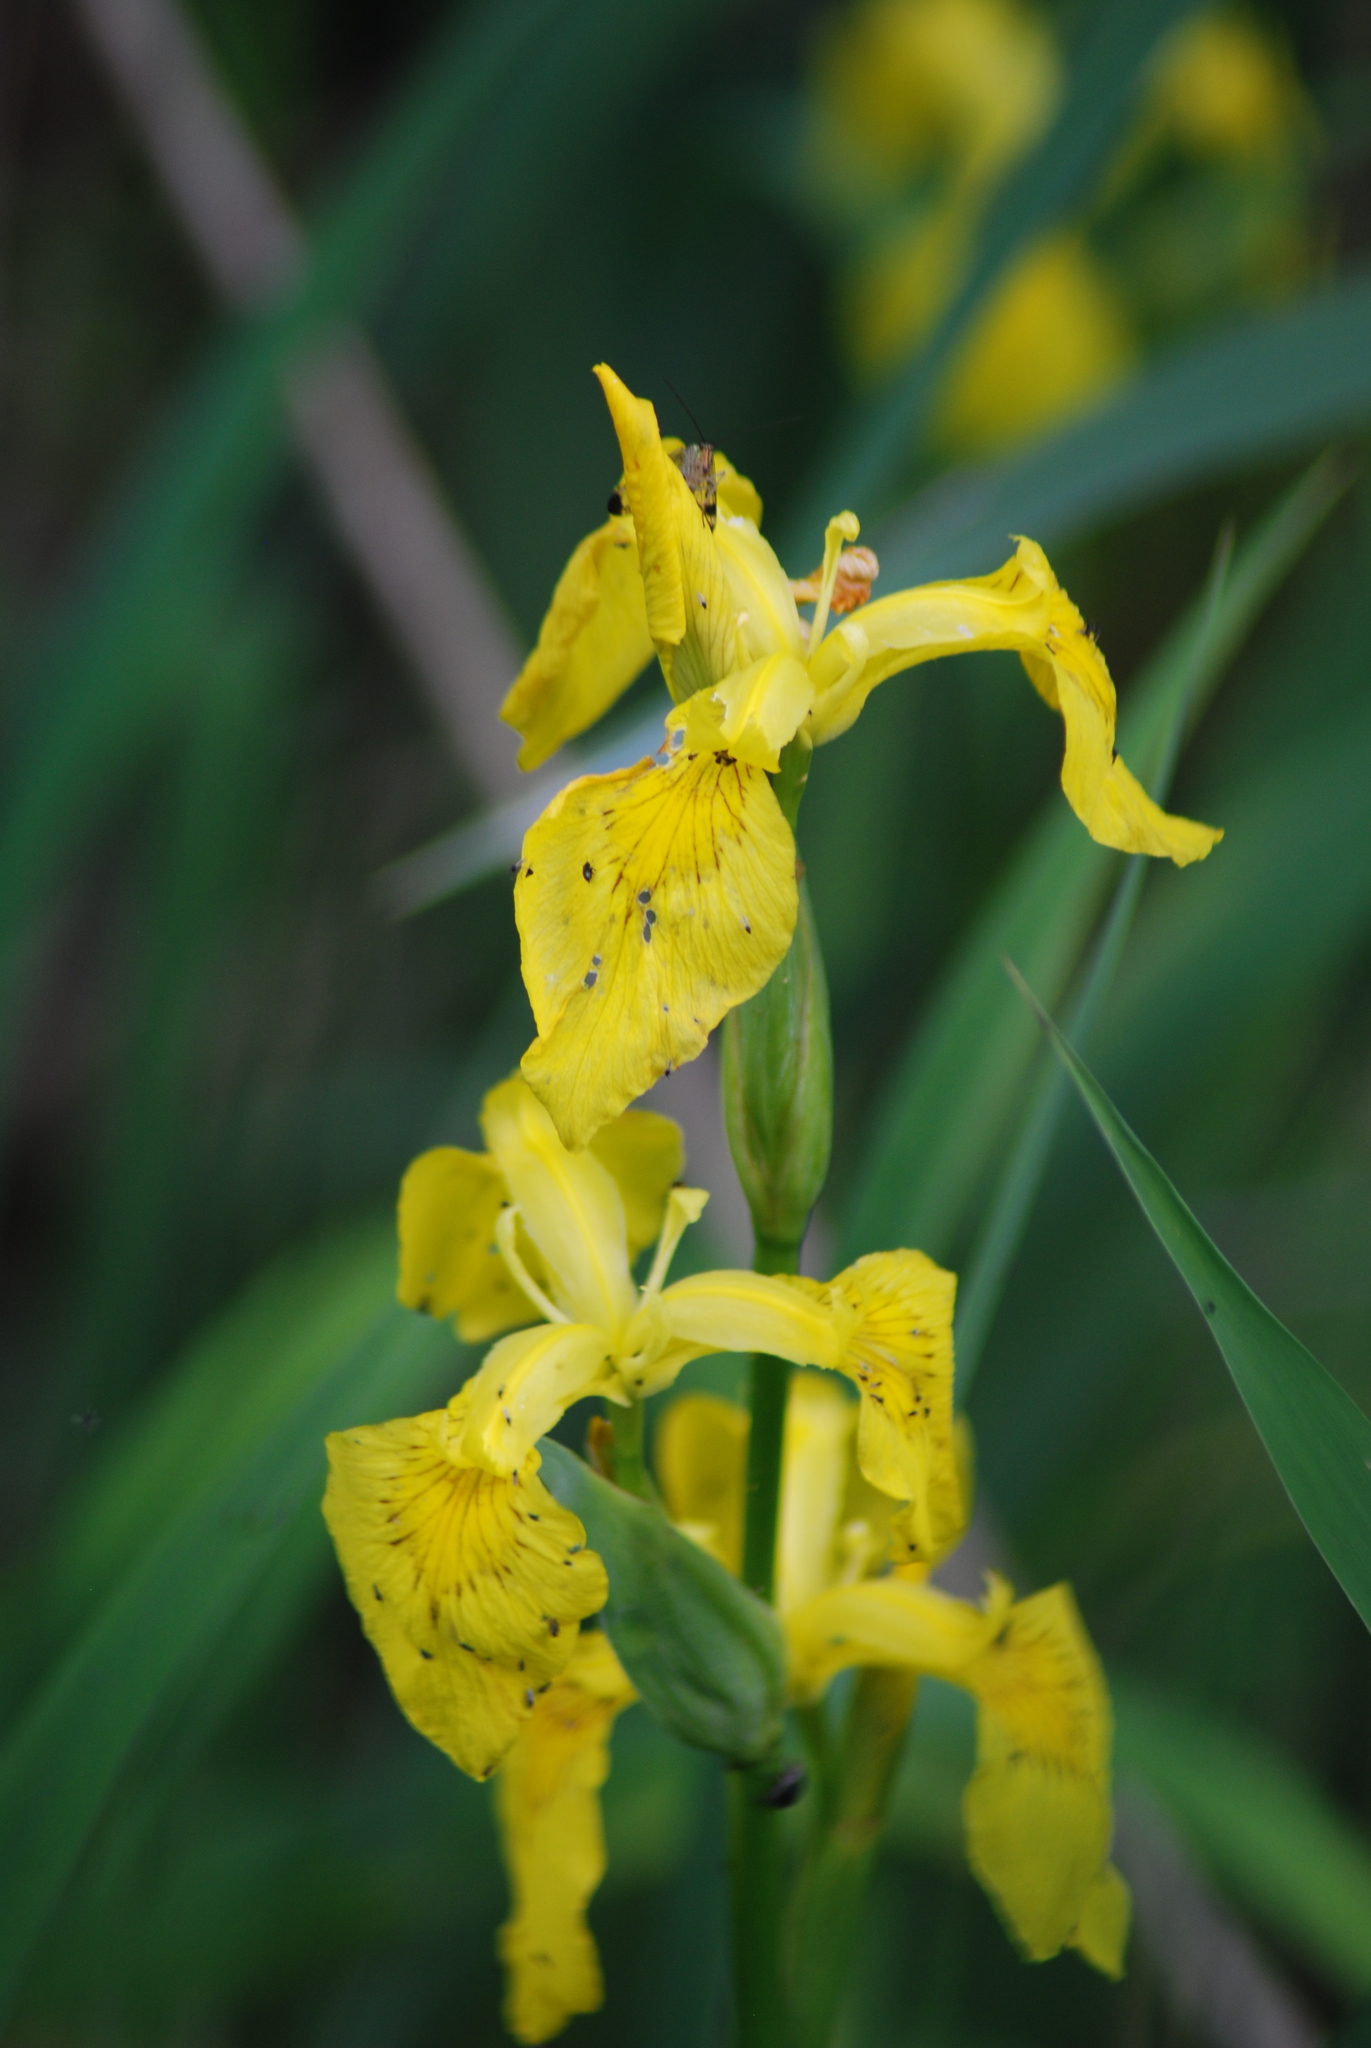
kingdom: Plantae
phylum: Tracheophyta
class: Liliopsida
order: Asparagales
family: Iridaceae
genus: Iris
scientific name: Iris pseudacorus
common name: Yellow flag
